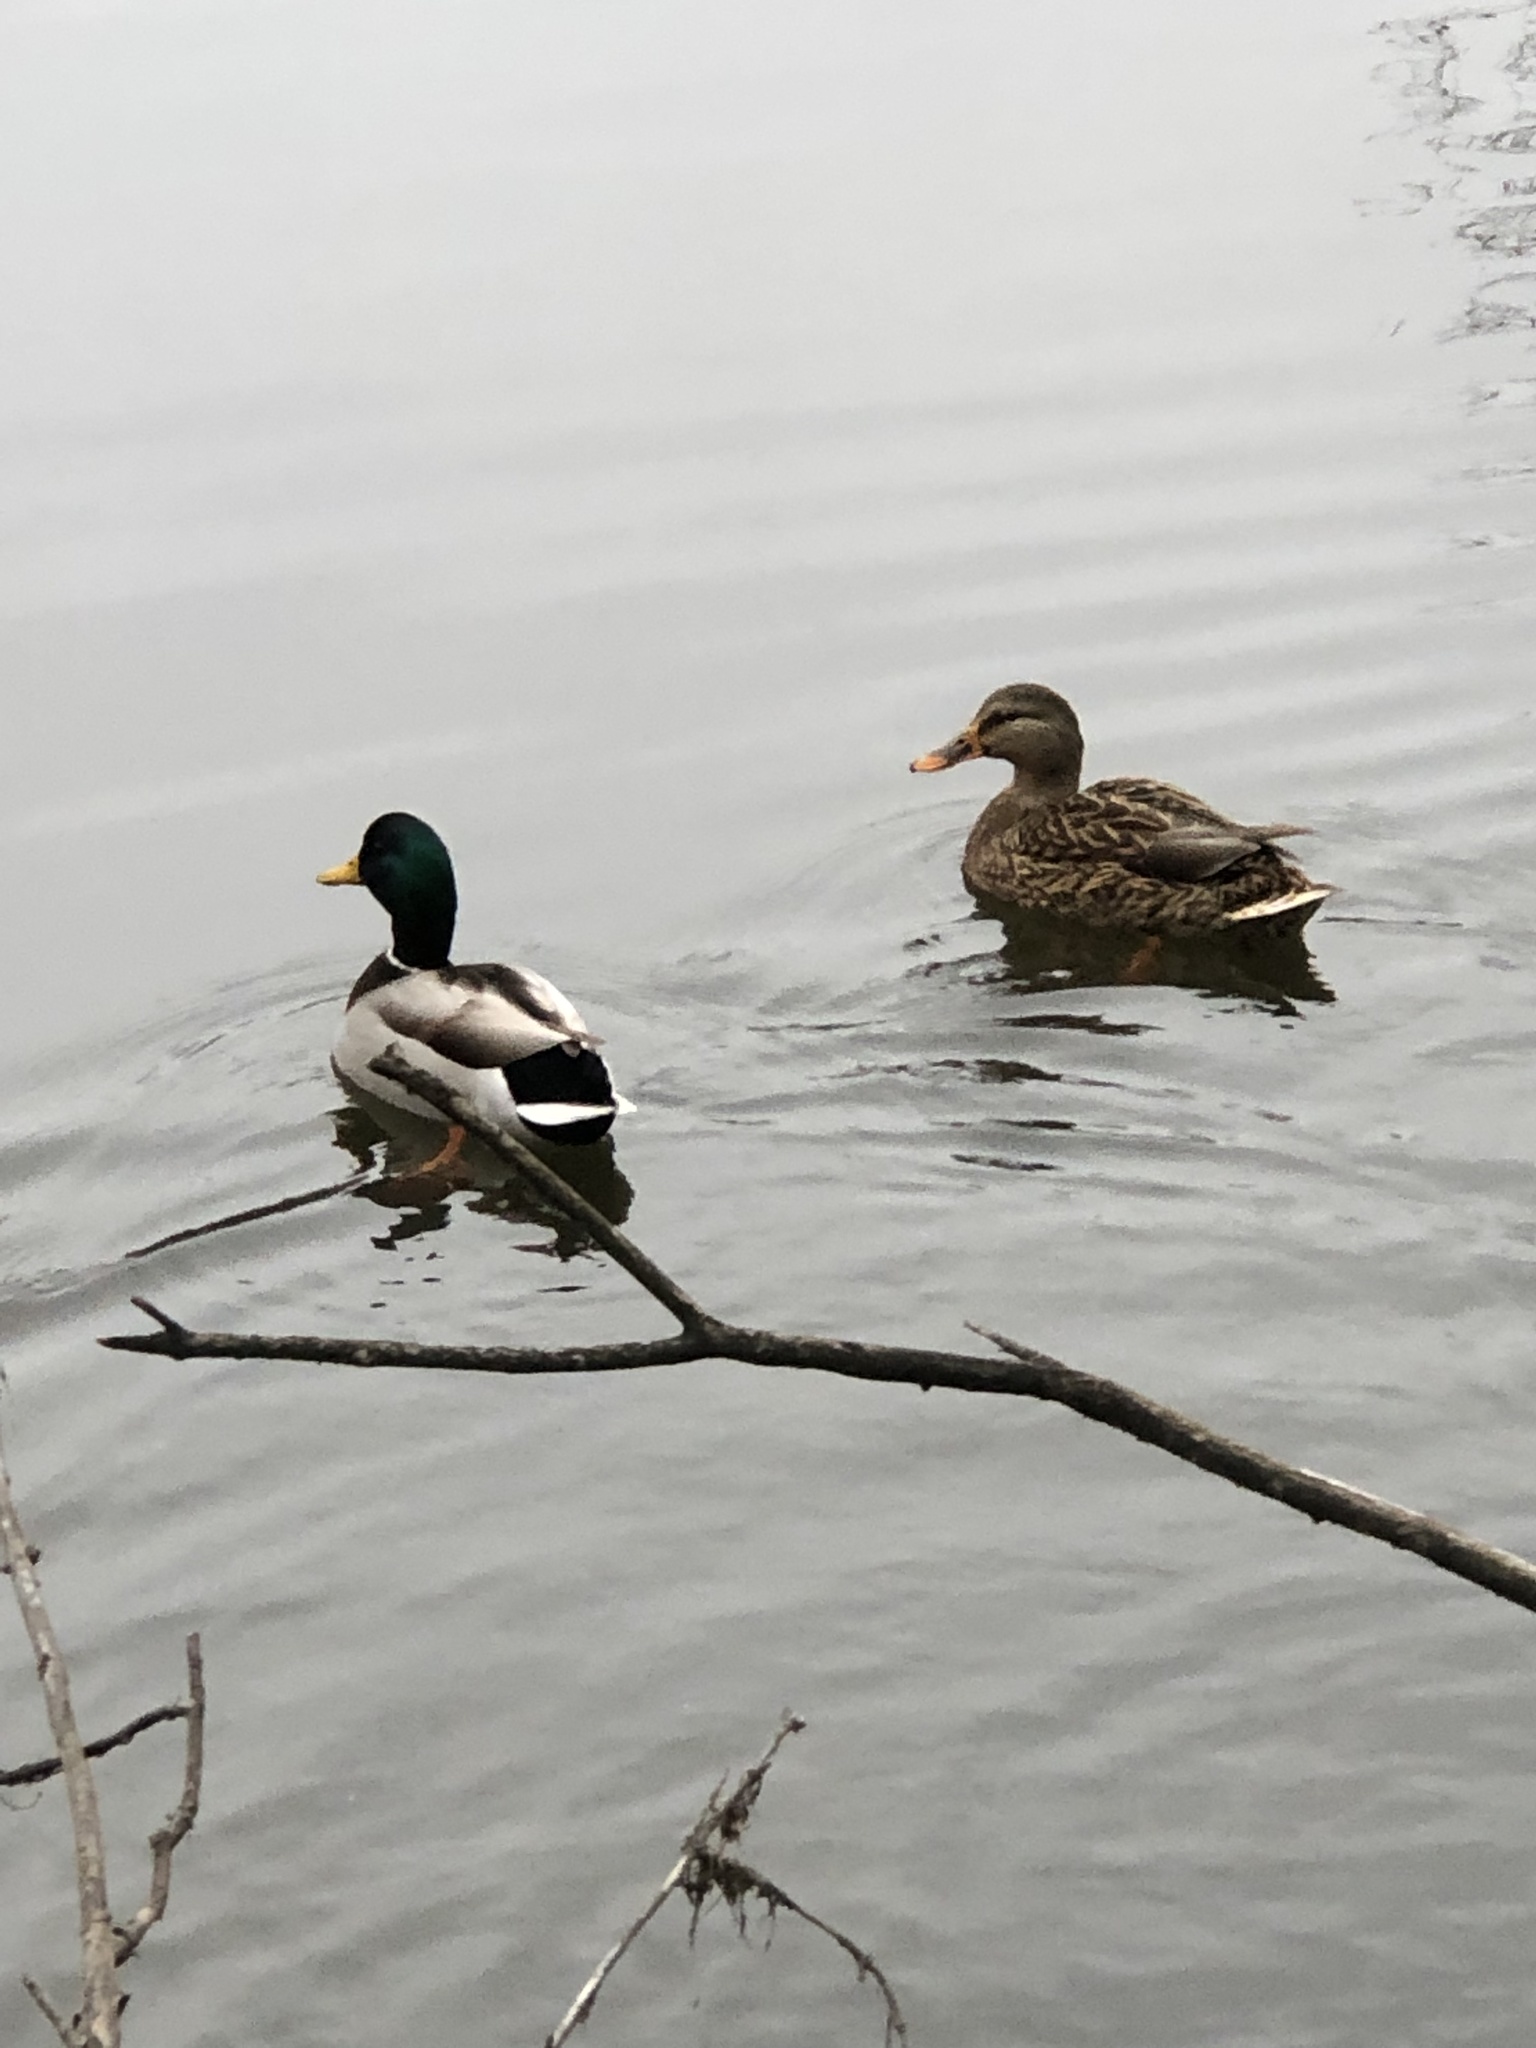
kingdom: Animalia
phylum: Chordata
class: Aves
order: Anseriformes
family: Anatidae
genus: Anas
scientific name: Anas platyrhynchos
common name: Mallard
